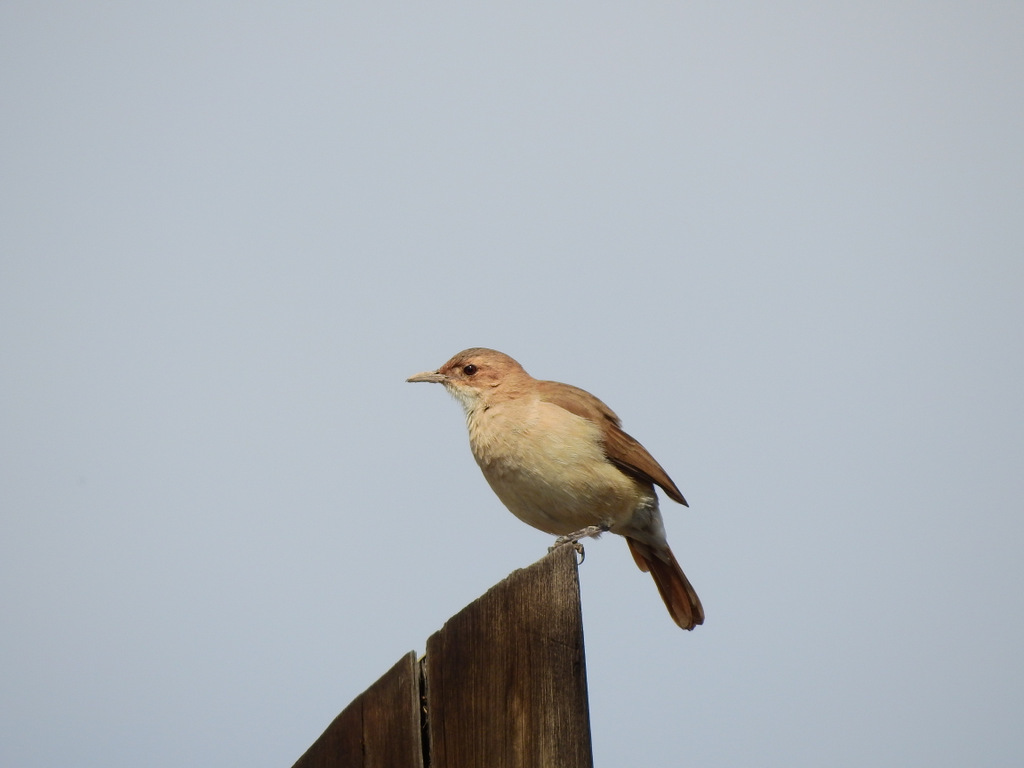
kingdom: Animalia
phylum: Chordata
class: Aves
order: Passeriformes
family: Furnariidae
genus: Furnarius
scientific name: Furnarius rufus
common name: Rufous hornero
